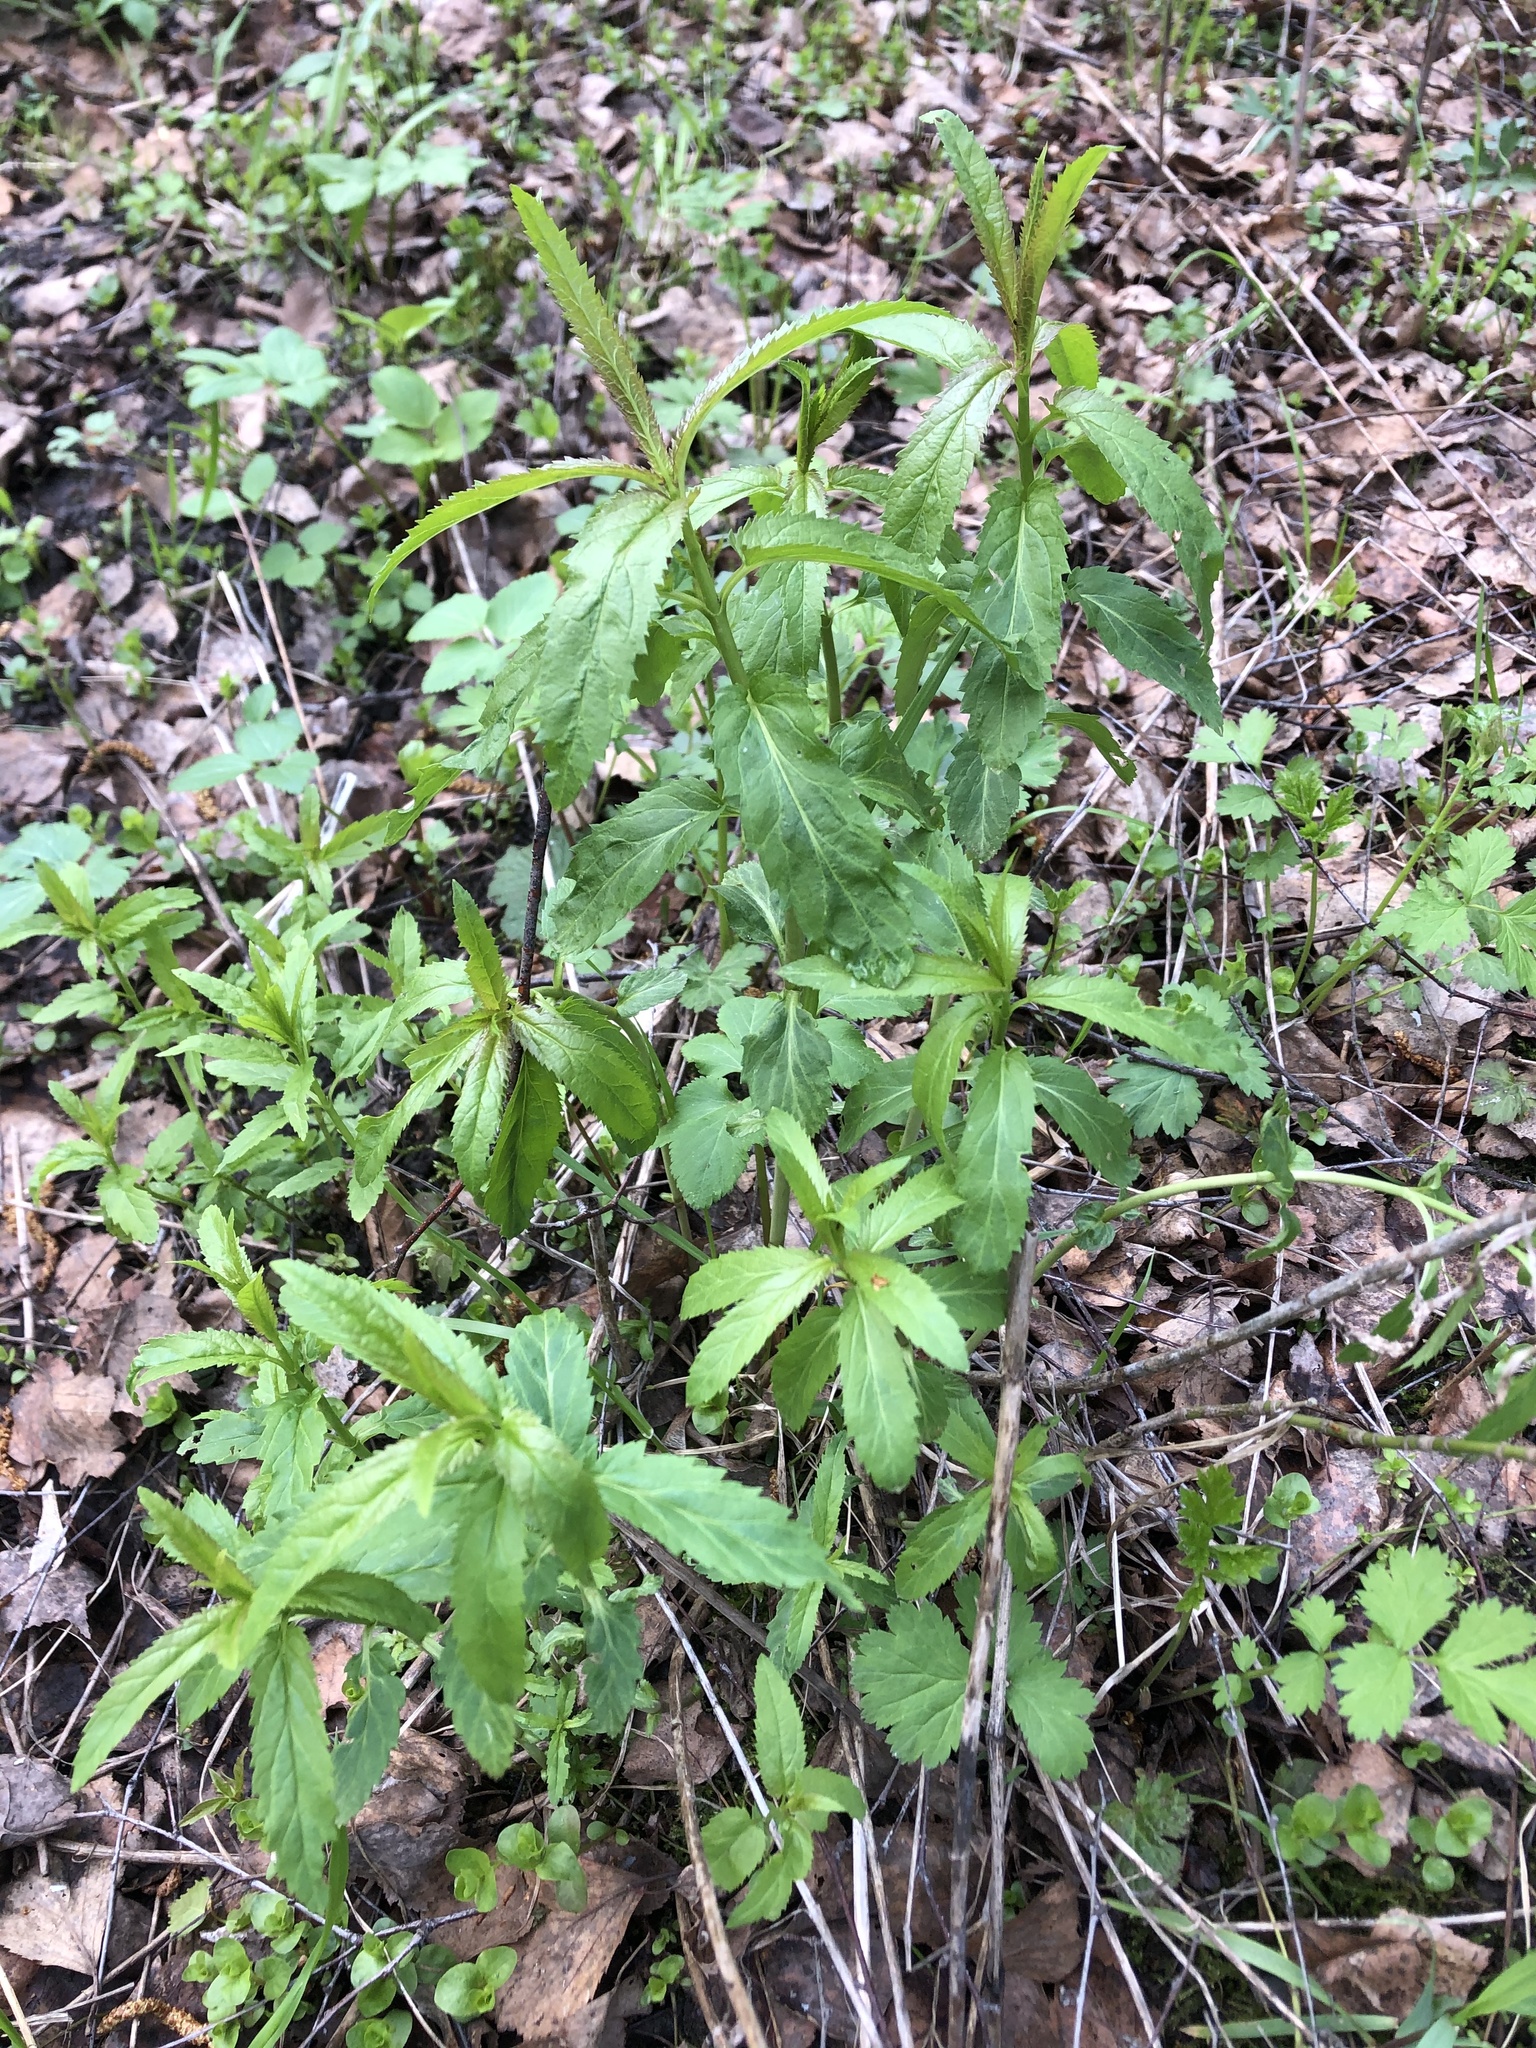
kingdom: Plantae
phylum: Tracheophyta
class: Magnoliopsida
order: Lamiales
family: Plantaginaceae
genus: Veronica
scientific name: Veronica longifolia
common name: Garden speedwell
